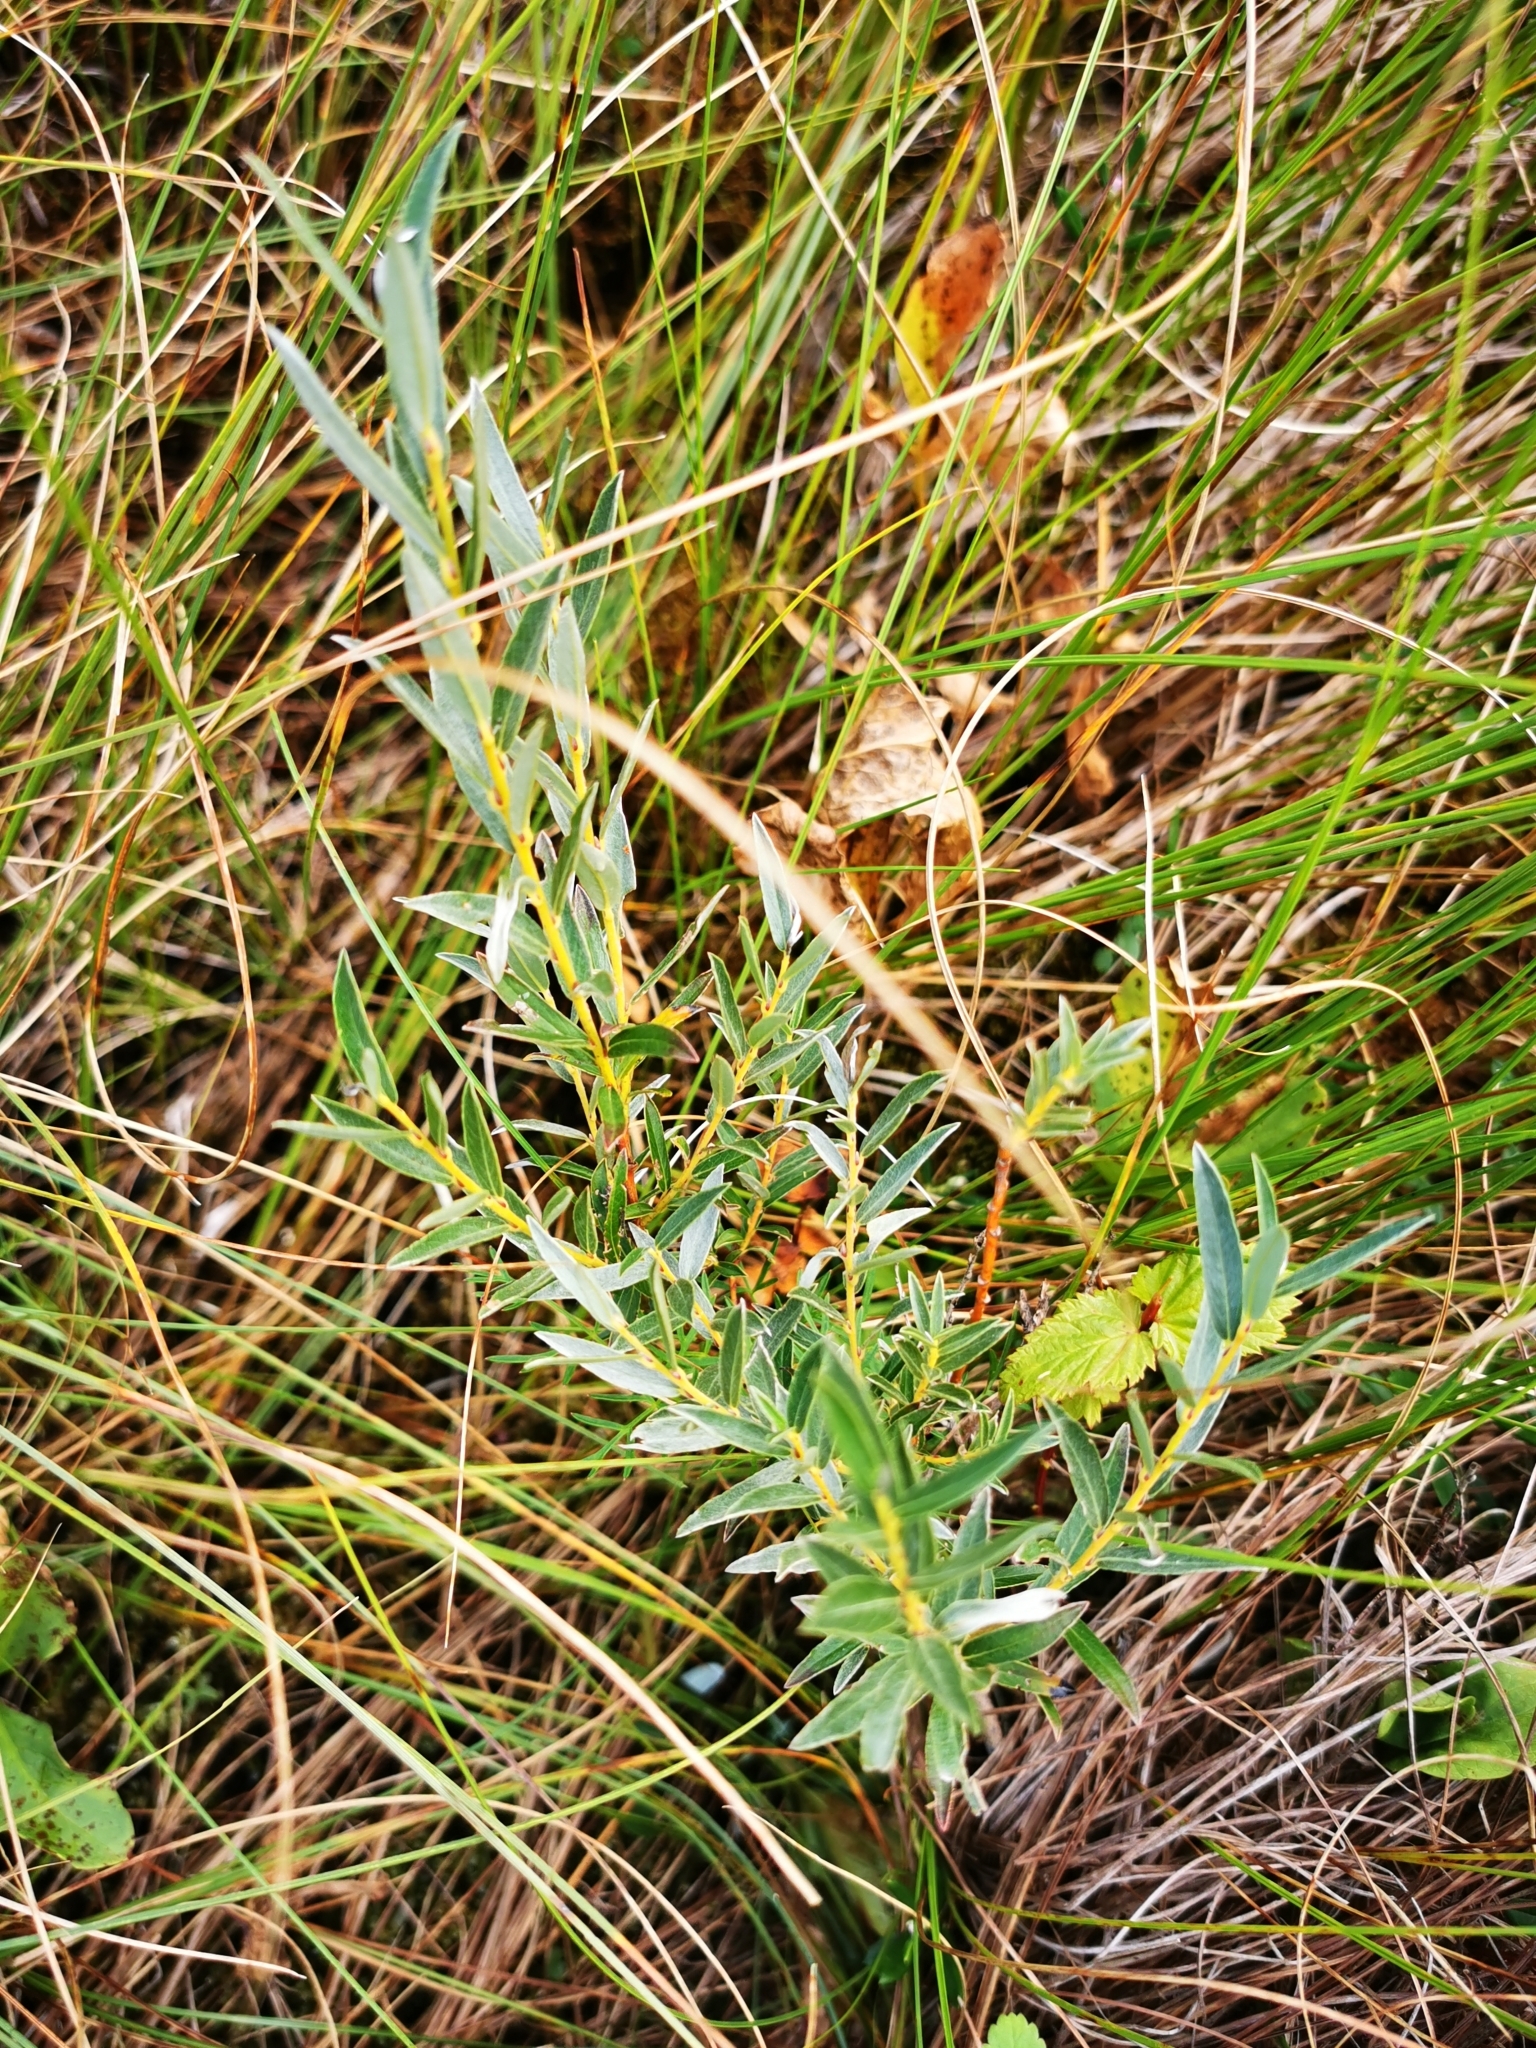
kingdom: Plantae
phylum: Tracheophyta
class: Magnoliopsida
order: Malpighiales
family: Salicaceae
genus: Salix
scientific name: Salix rosmarinifolia
